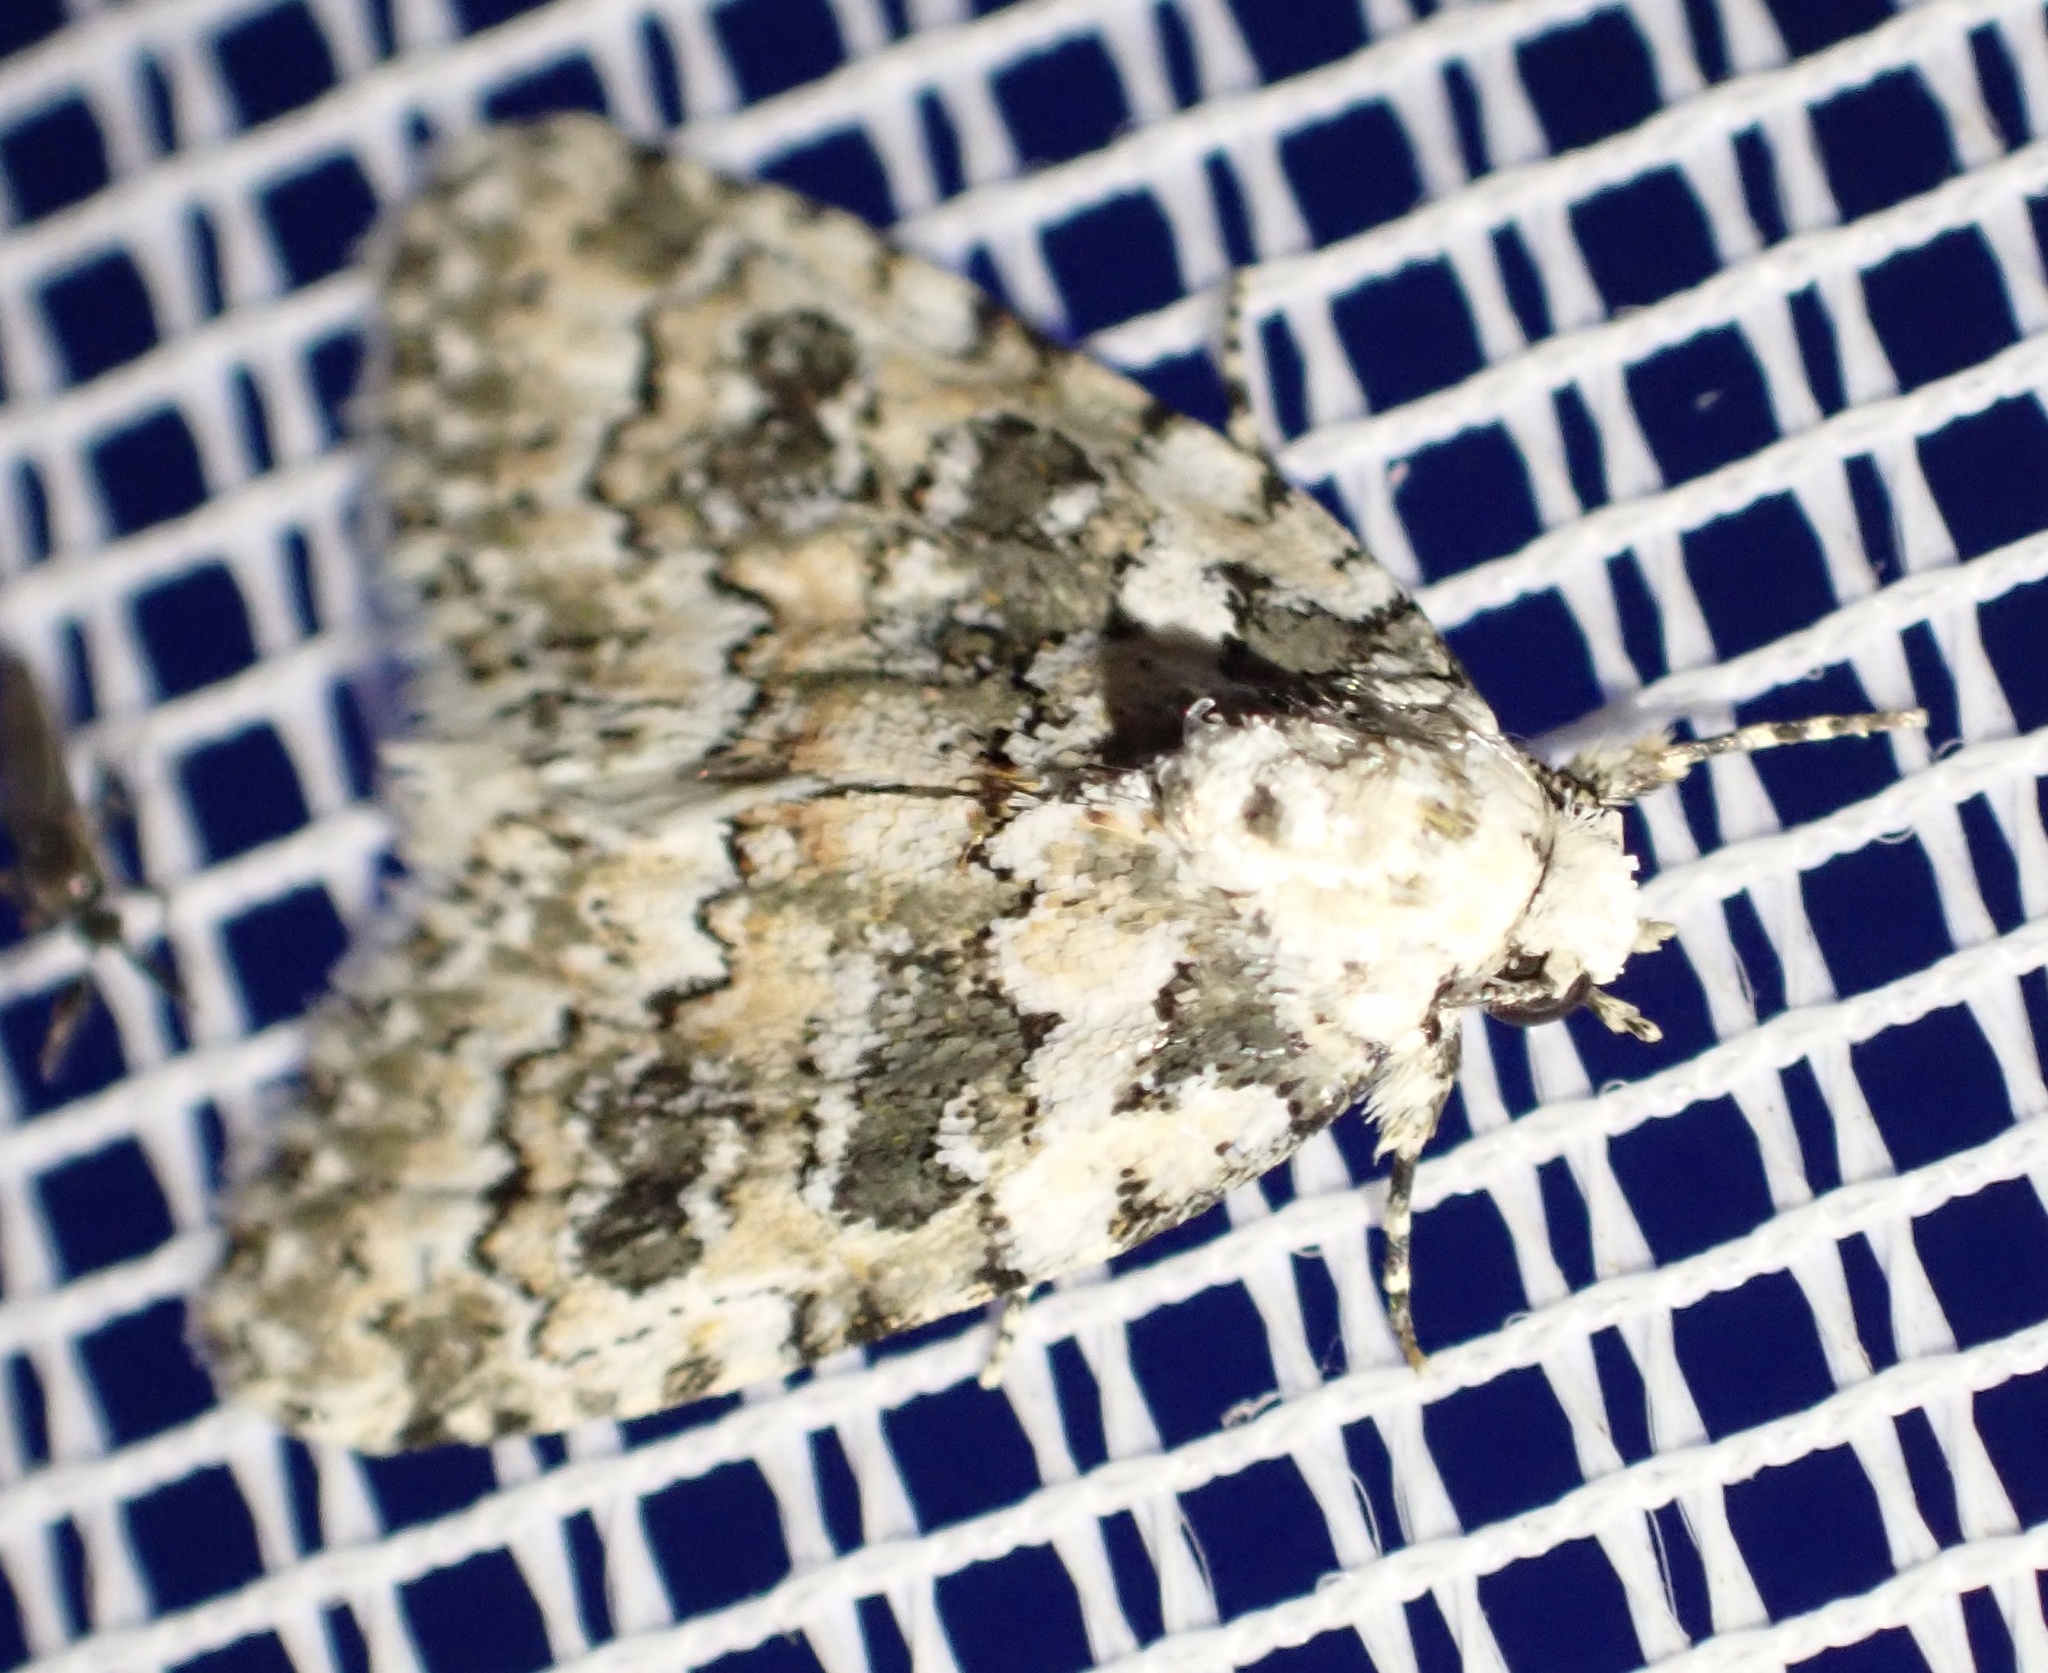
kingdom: Animalia
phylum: Arthropoda
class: Insecta
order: Lepidoptera
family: Noctuidae
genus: Bryophila
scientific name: Bryophila domestica
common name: Marbled beauty
